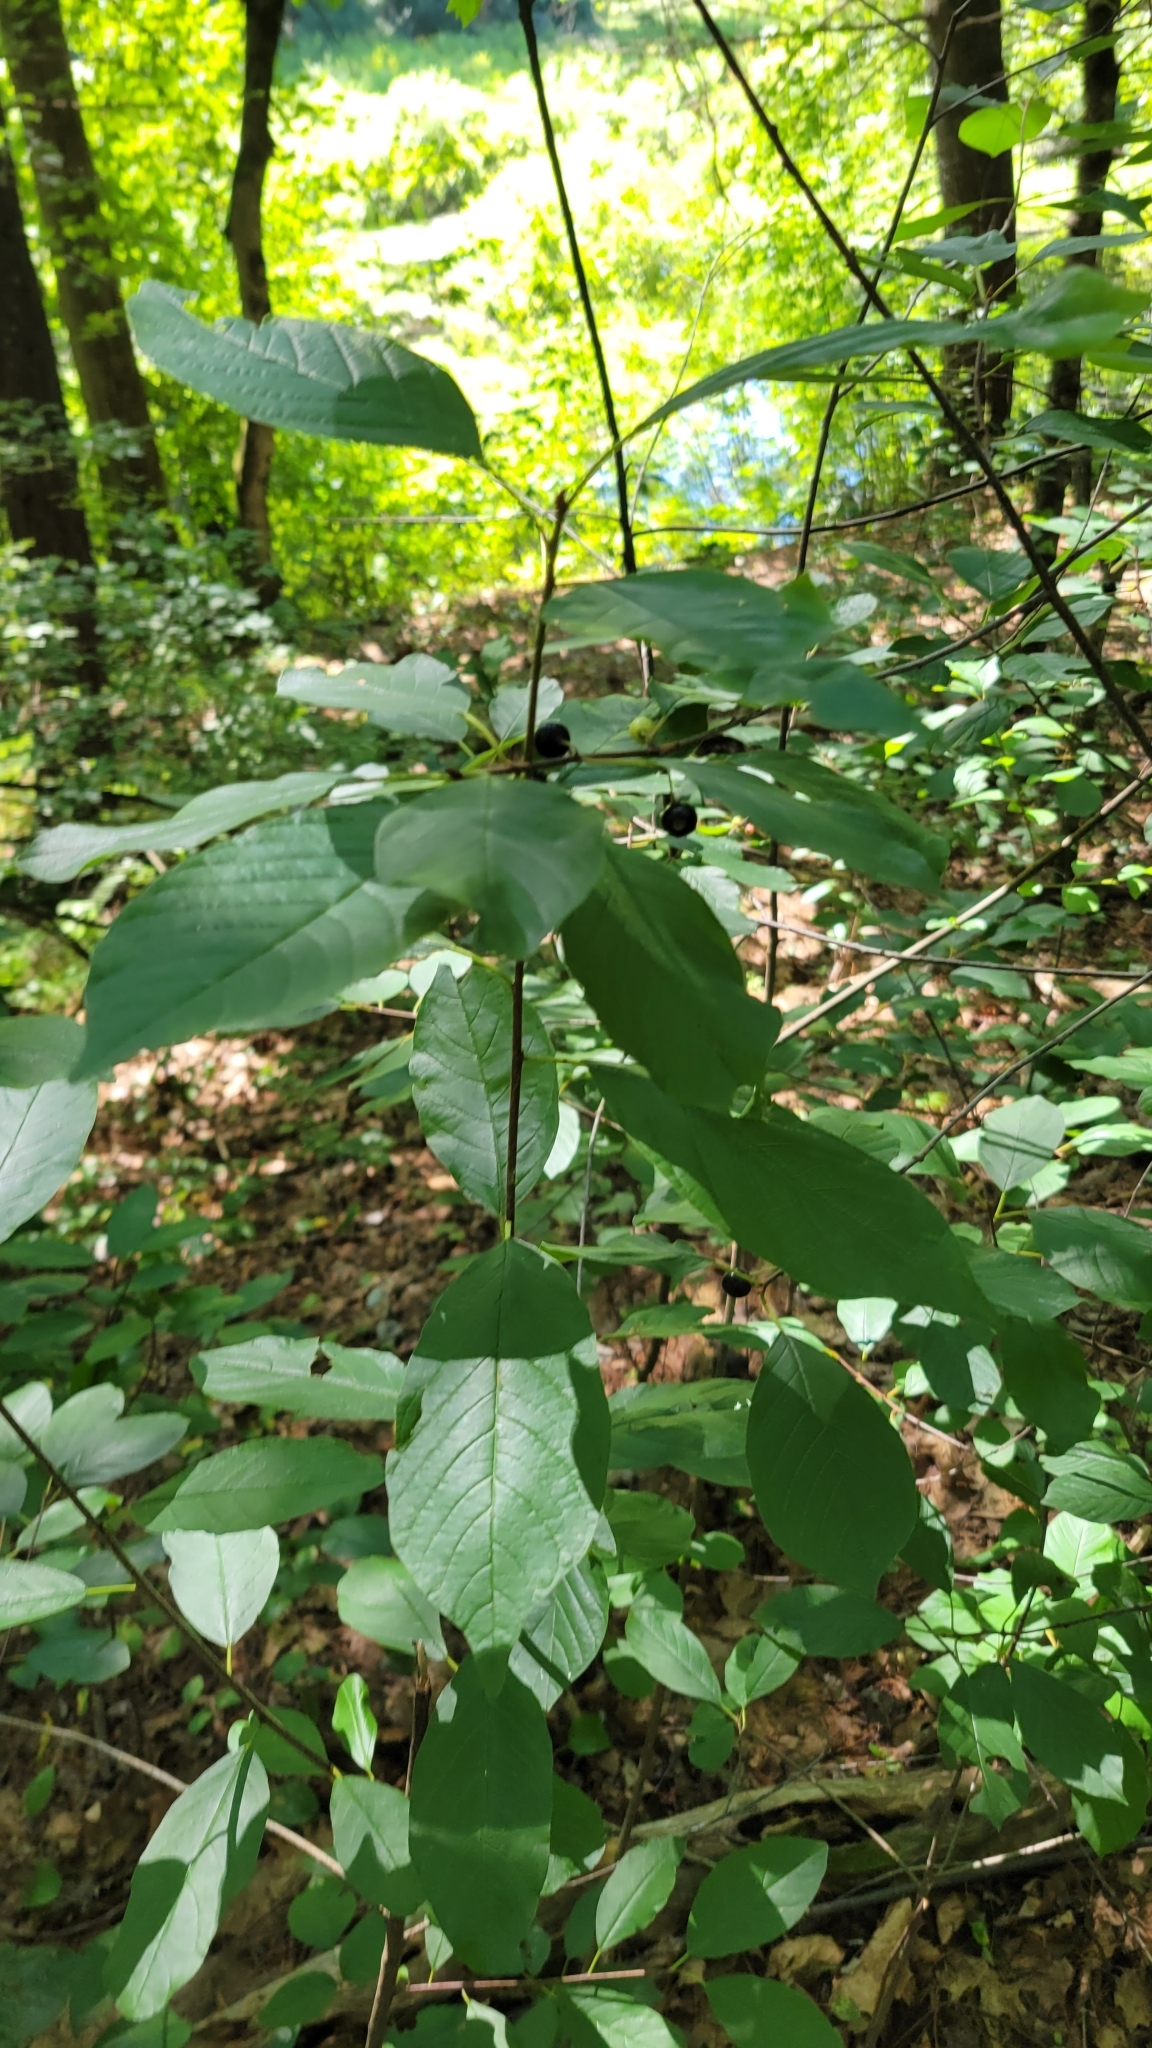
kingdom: Plantae
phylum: Tracheophyta
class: Magnoliopsida
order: Rosales
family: Rhamnaceae
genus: Frangula
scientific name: Frangula alnus
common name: Alder buckthorn
